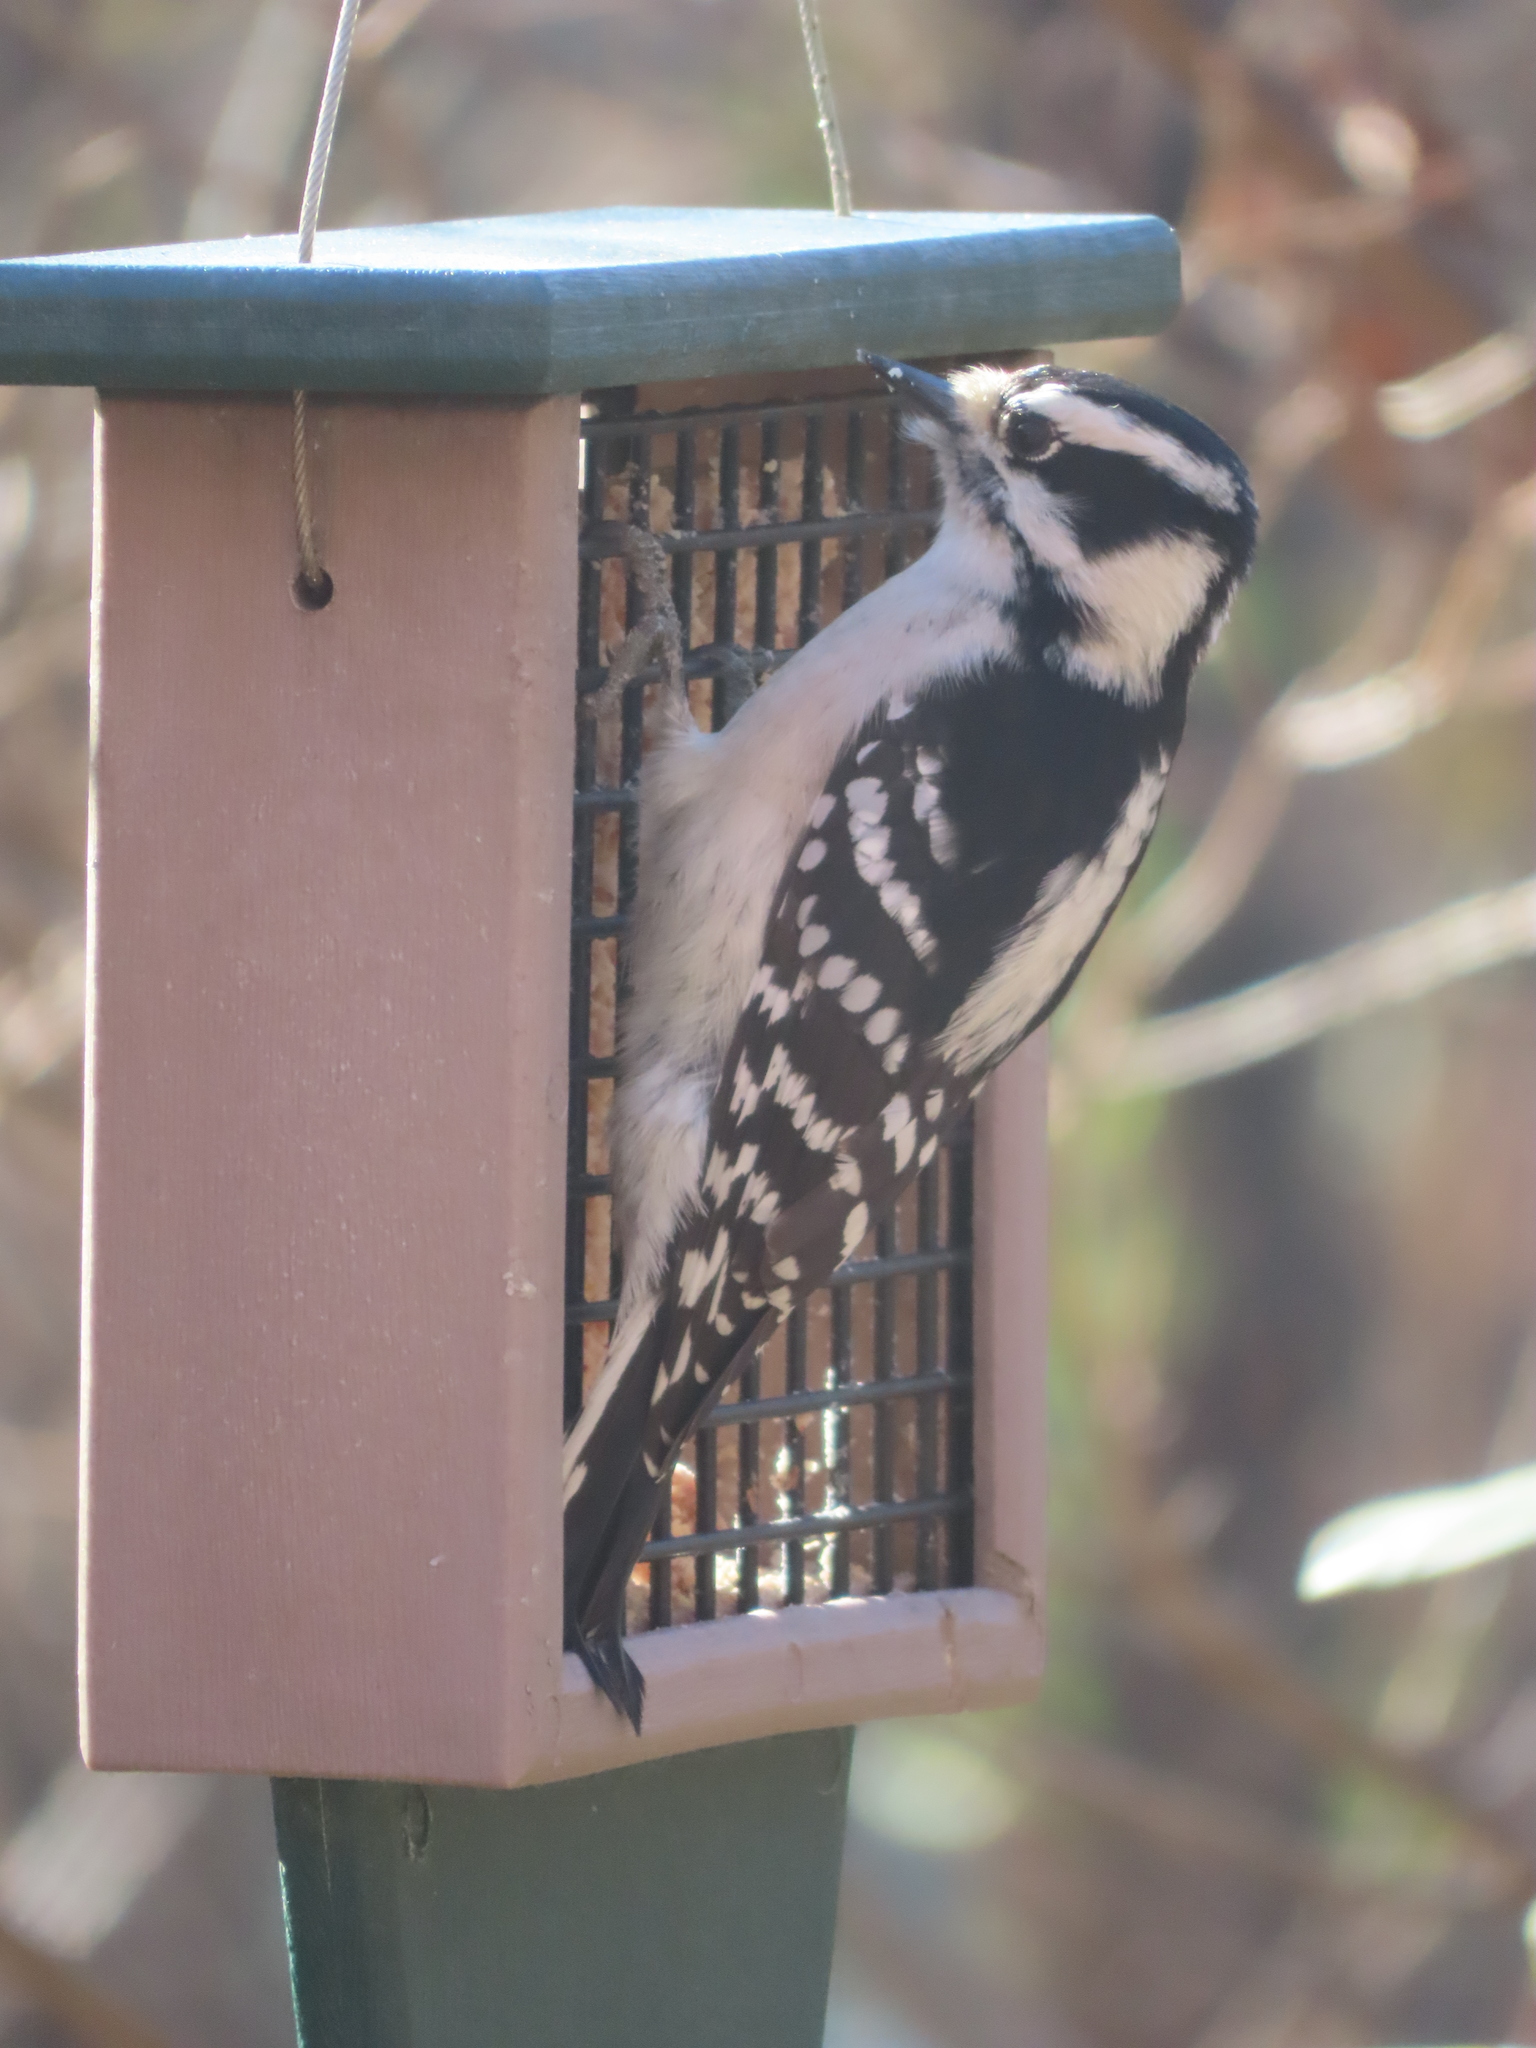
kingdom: Animalia
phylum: Chordata
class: Aves
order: Piciformes
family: Picidae
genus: Dryobates
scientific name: Dryobates pubescens
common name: Downy woodpecker
